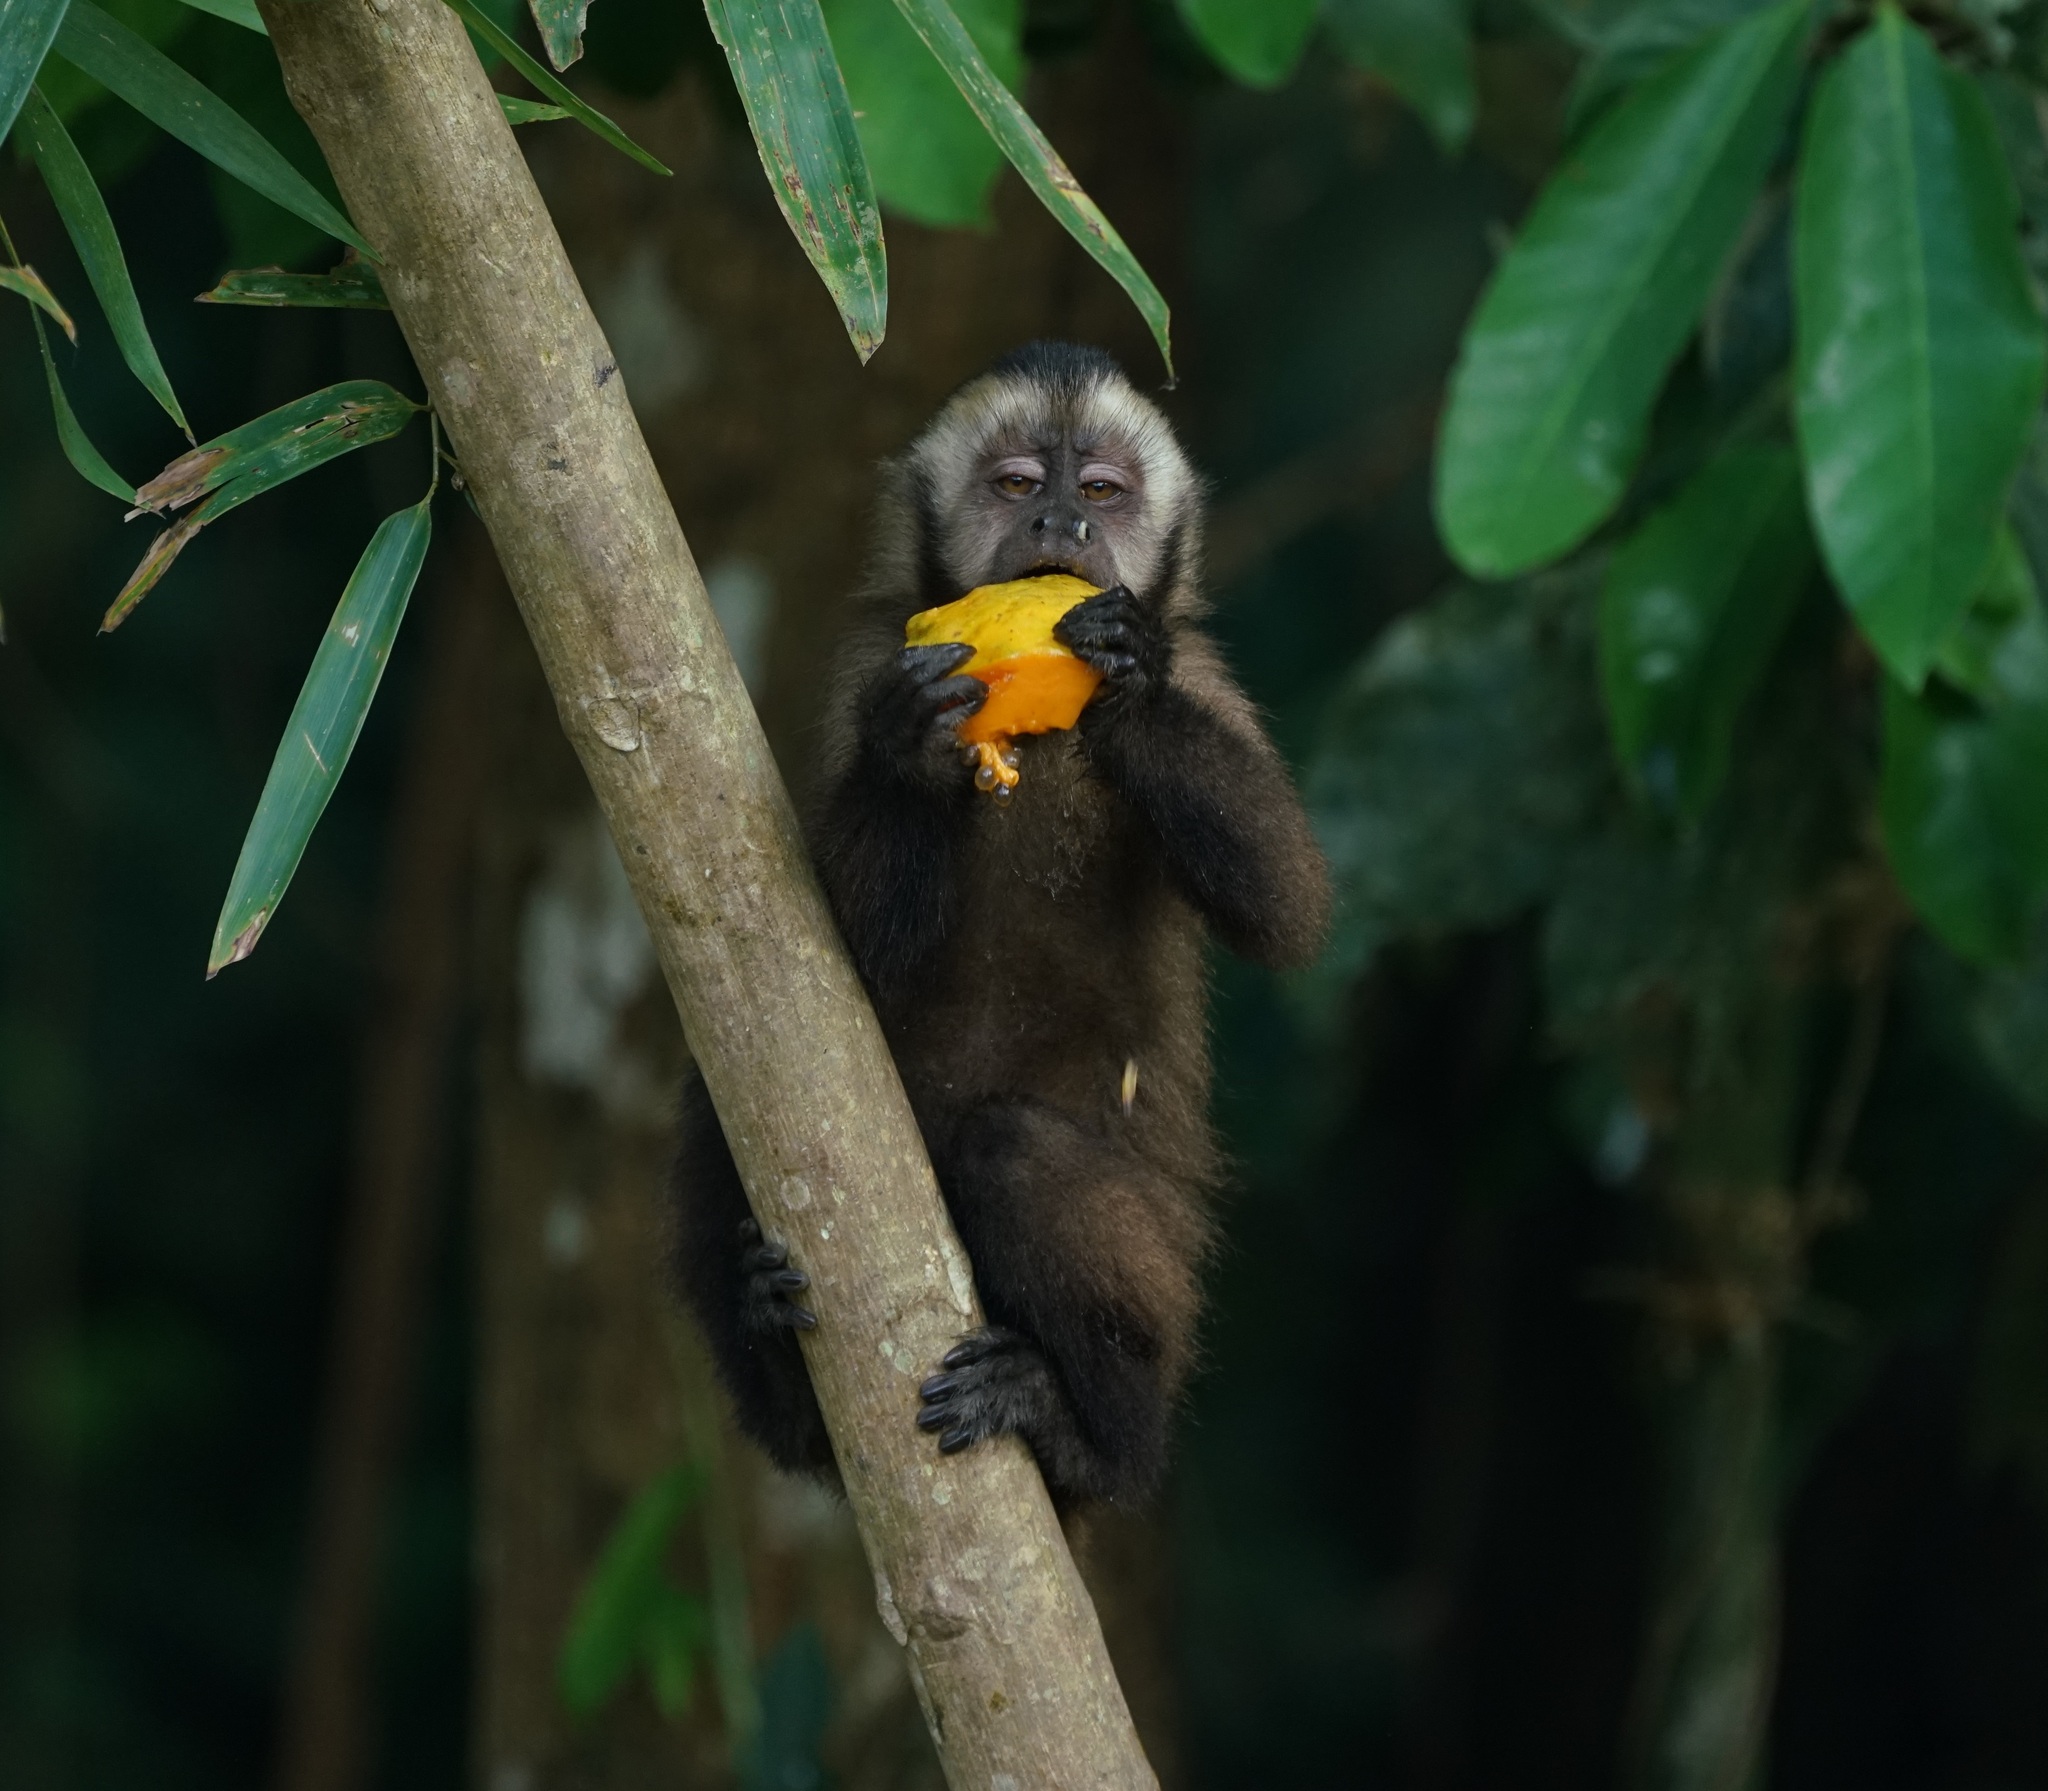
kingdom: Animalia
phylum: Chordata
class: Mammalia
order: Primates
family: Cebidae
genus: Sapajus
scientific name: Sapajus apella
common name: Tufted capuchin
